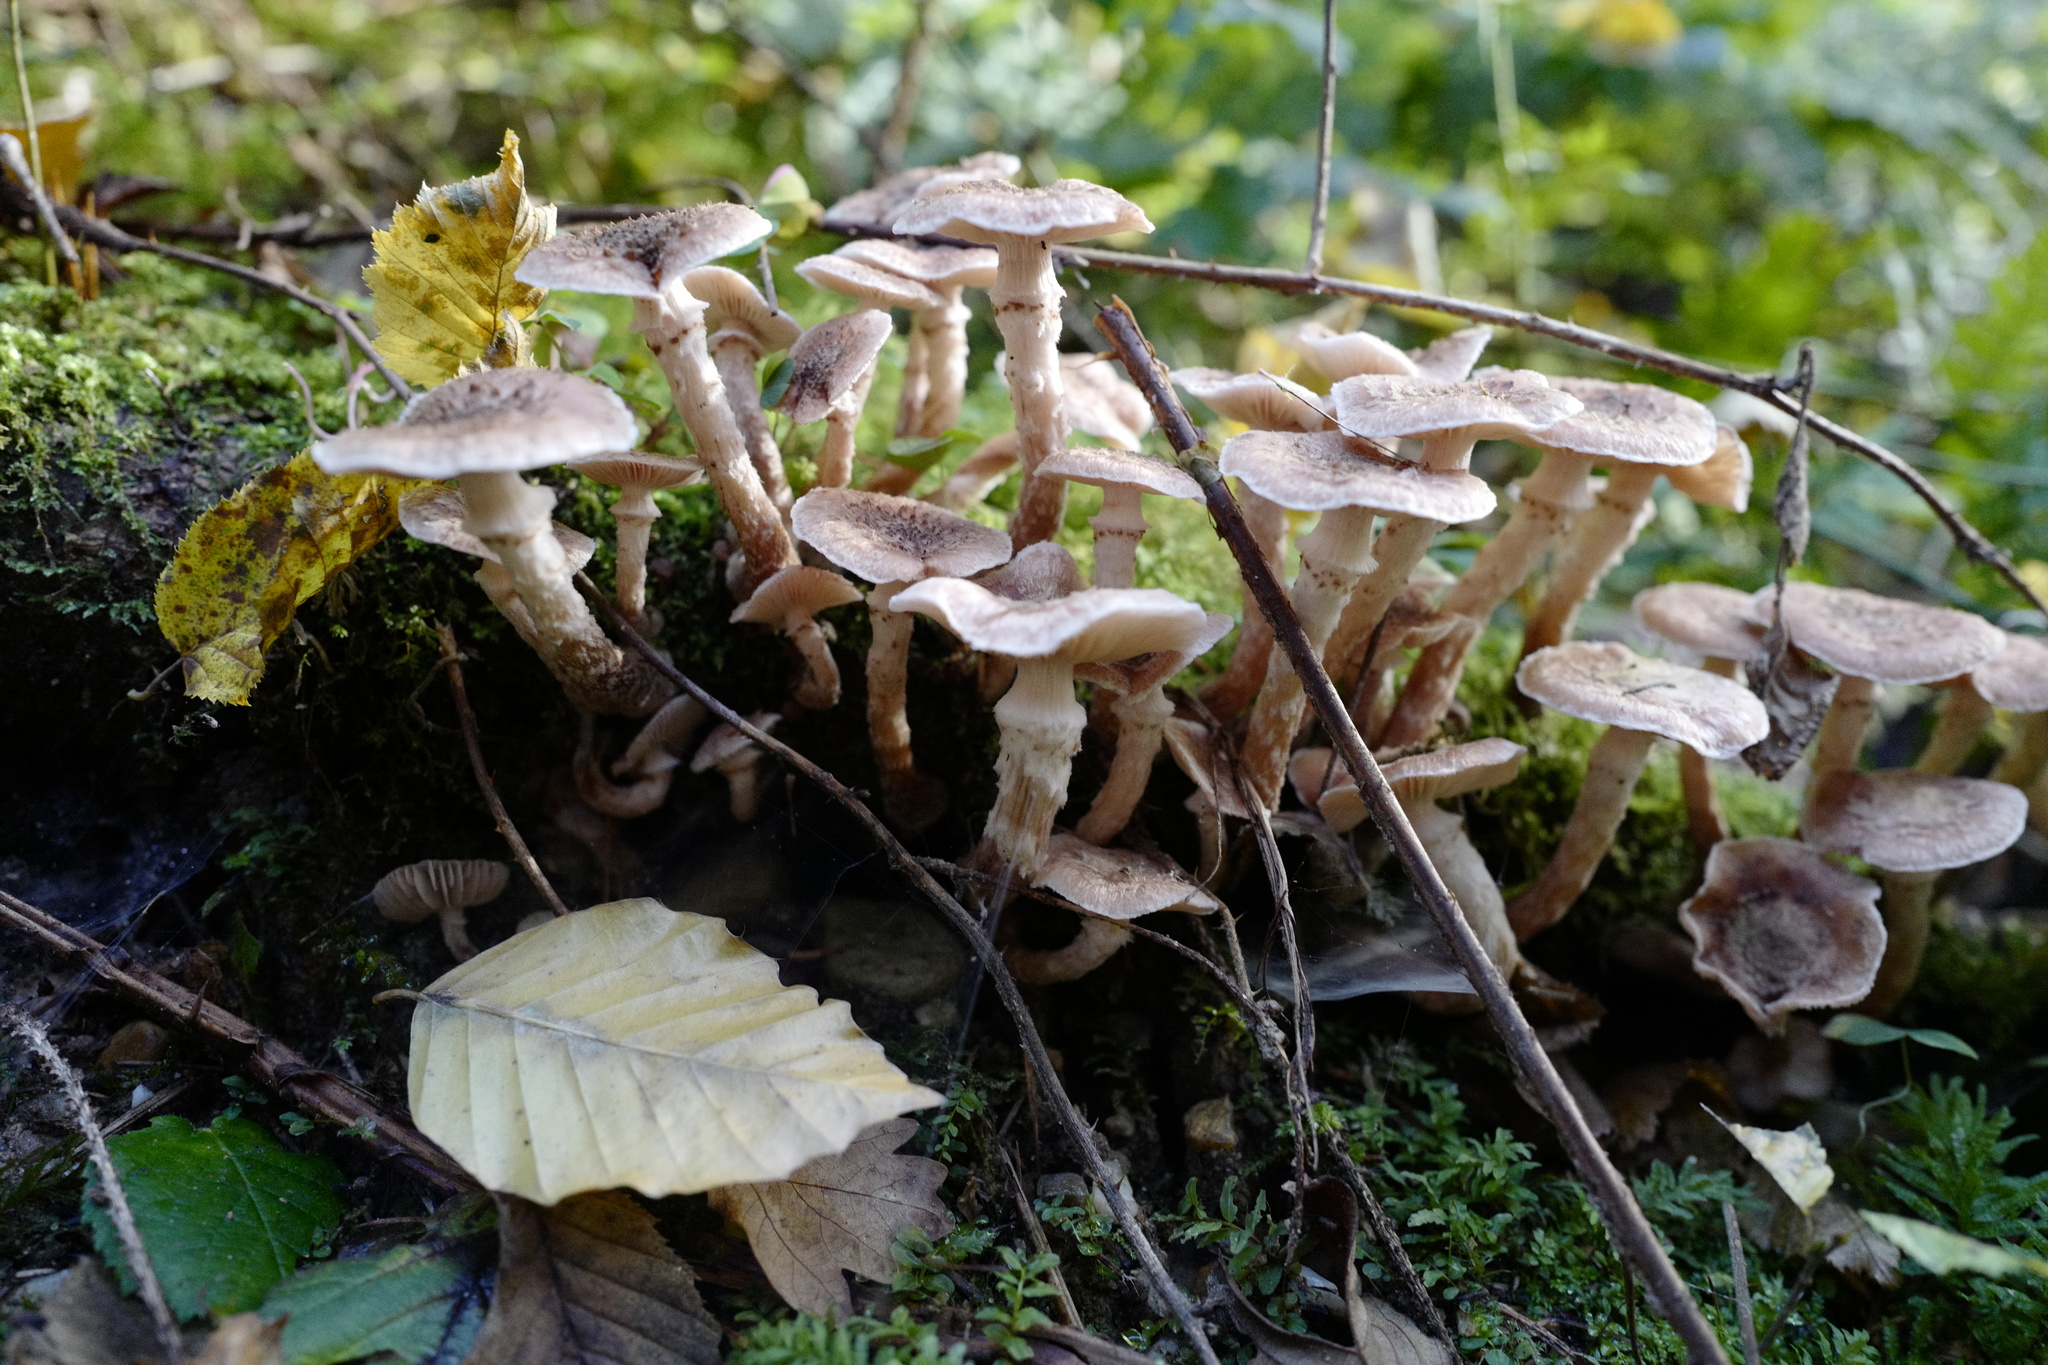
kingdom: Fungi
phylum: Basidiomycota
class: Agaricomycetes
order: Agaricales
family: Physalacriaceae
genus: Armillaria
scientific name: Armillaria ostoyae
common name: Dark honey fungus
